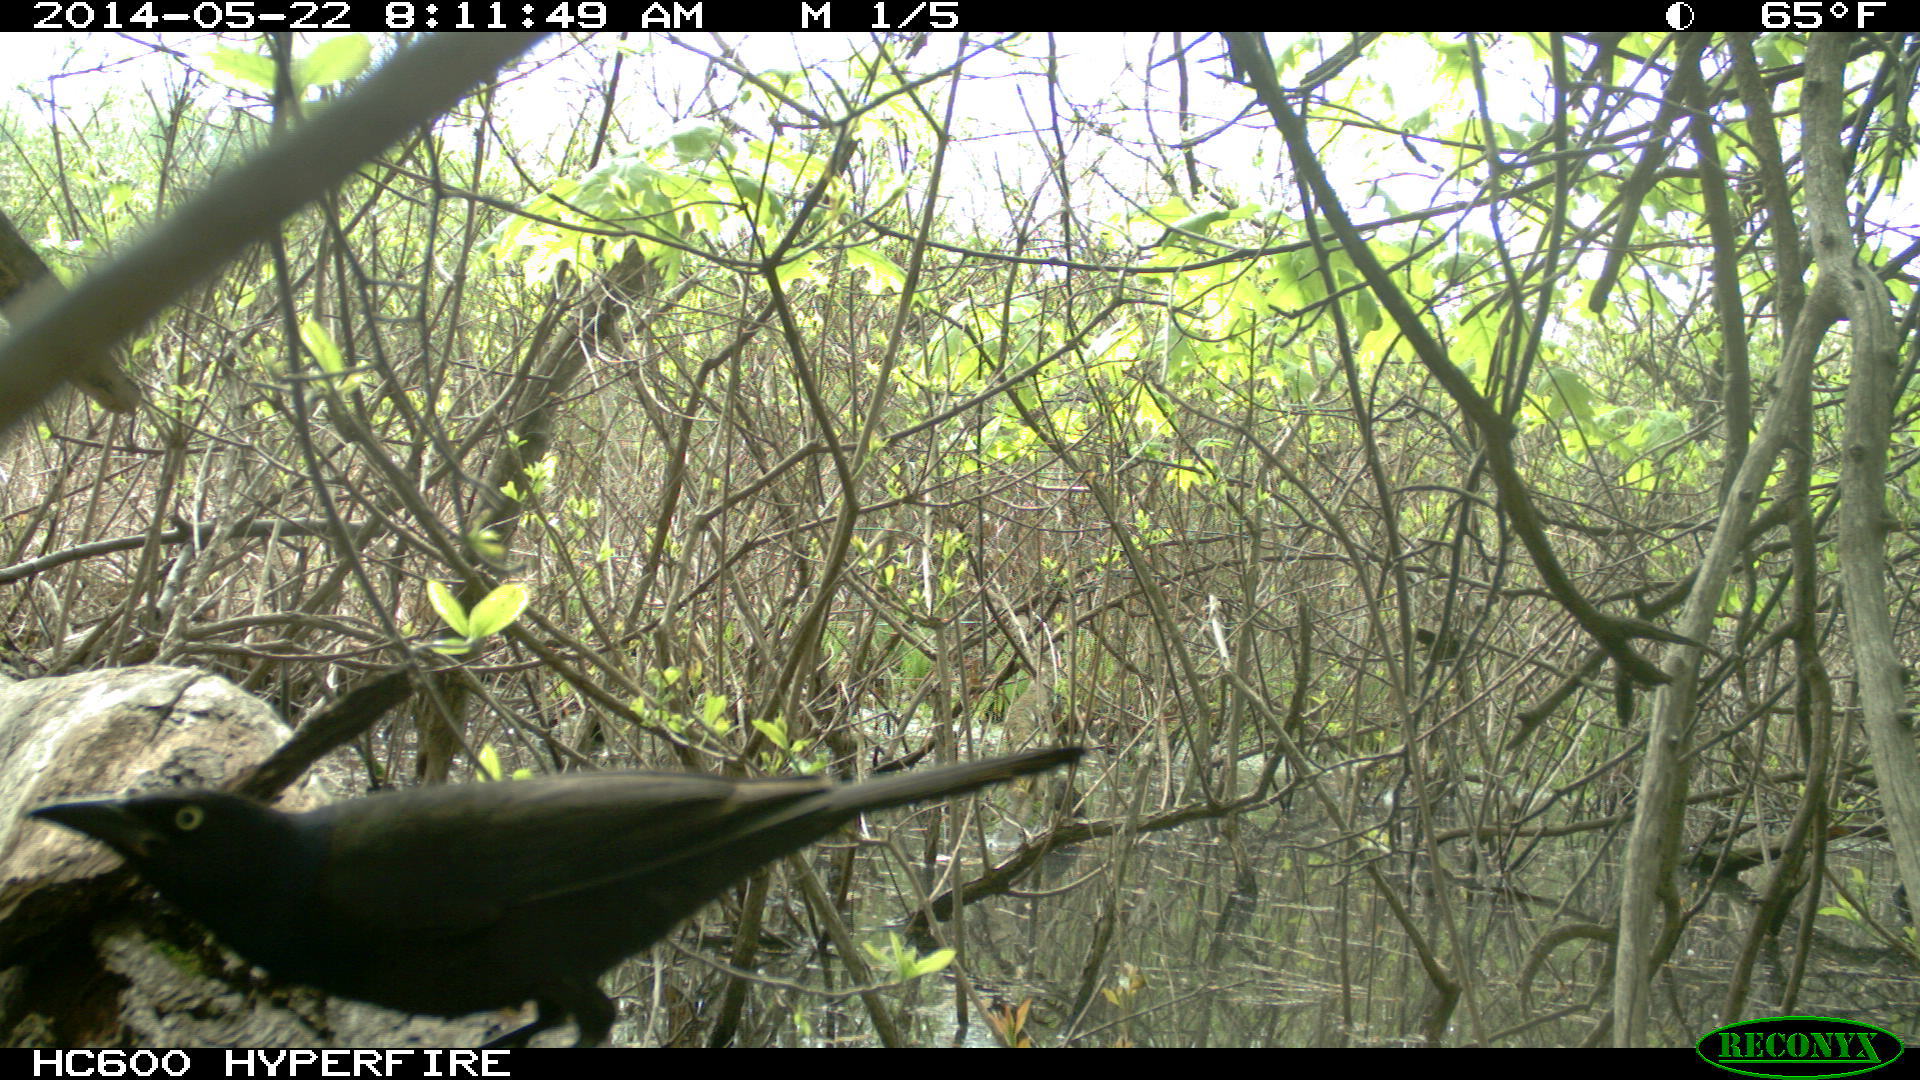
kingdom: Animalia
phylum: Chordata
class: Aves
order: Passeriformes
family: Icteridae
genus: Quiscalus
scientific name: Quiscalus quiscula
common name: Common grackle
